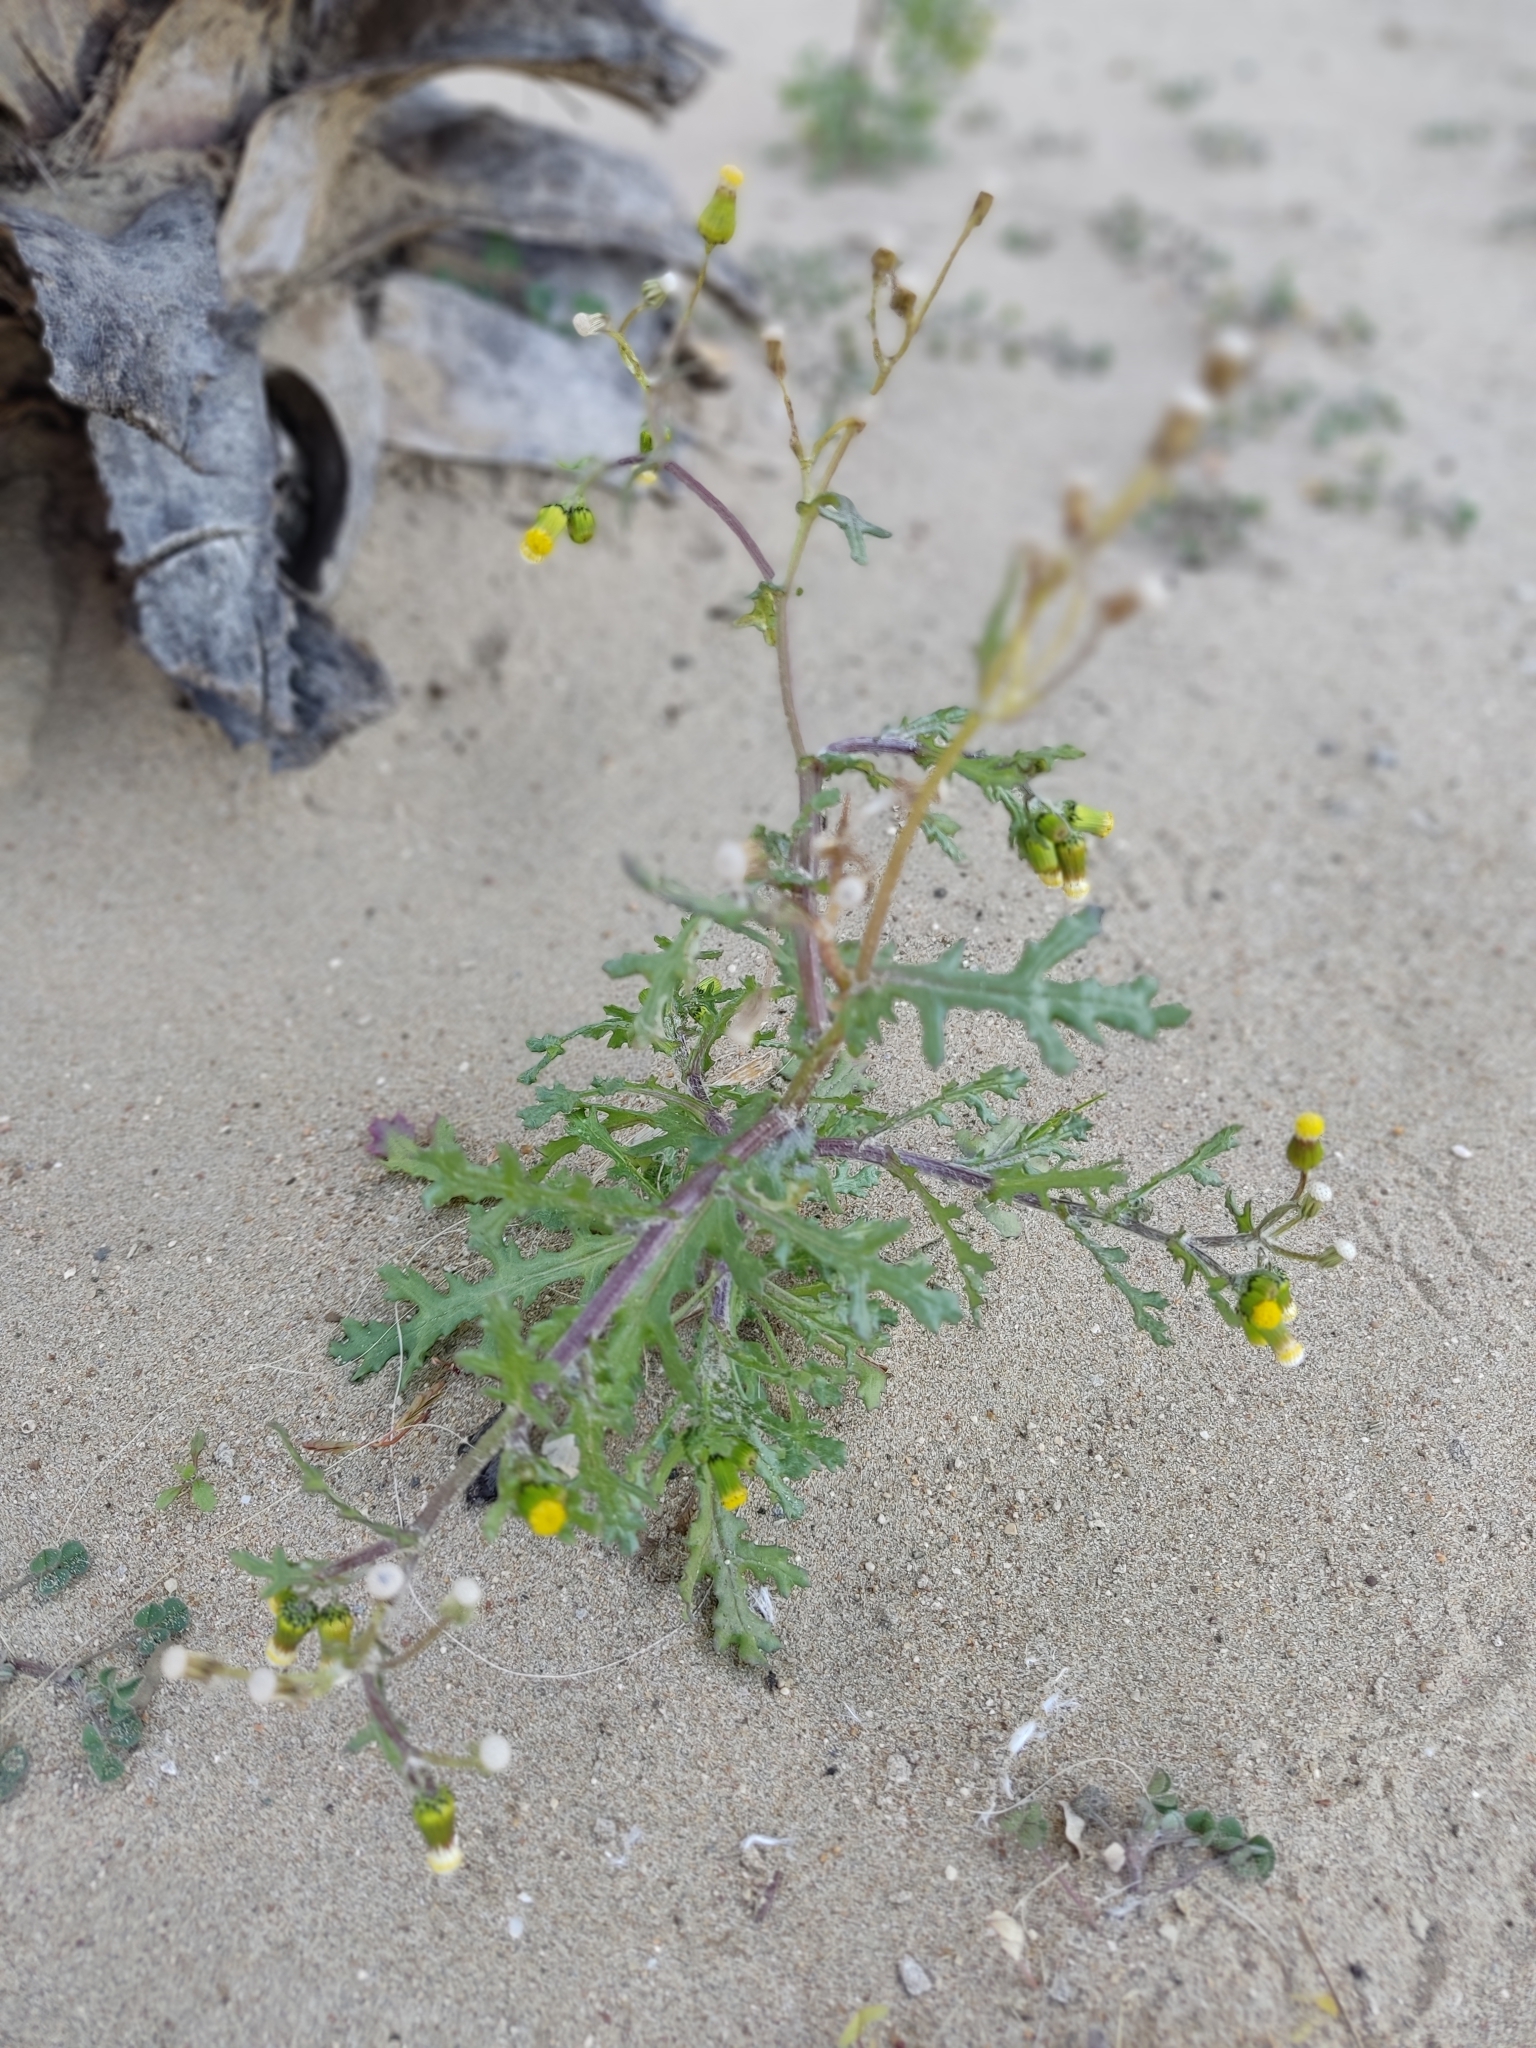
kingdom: Plantae
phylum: Tracheophyta
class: Magnoliopsida
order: Asterales
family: Asteraceae
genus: Senecio
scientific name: Senecio vulgaris
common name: Old-man-in-the-spring
